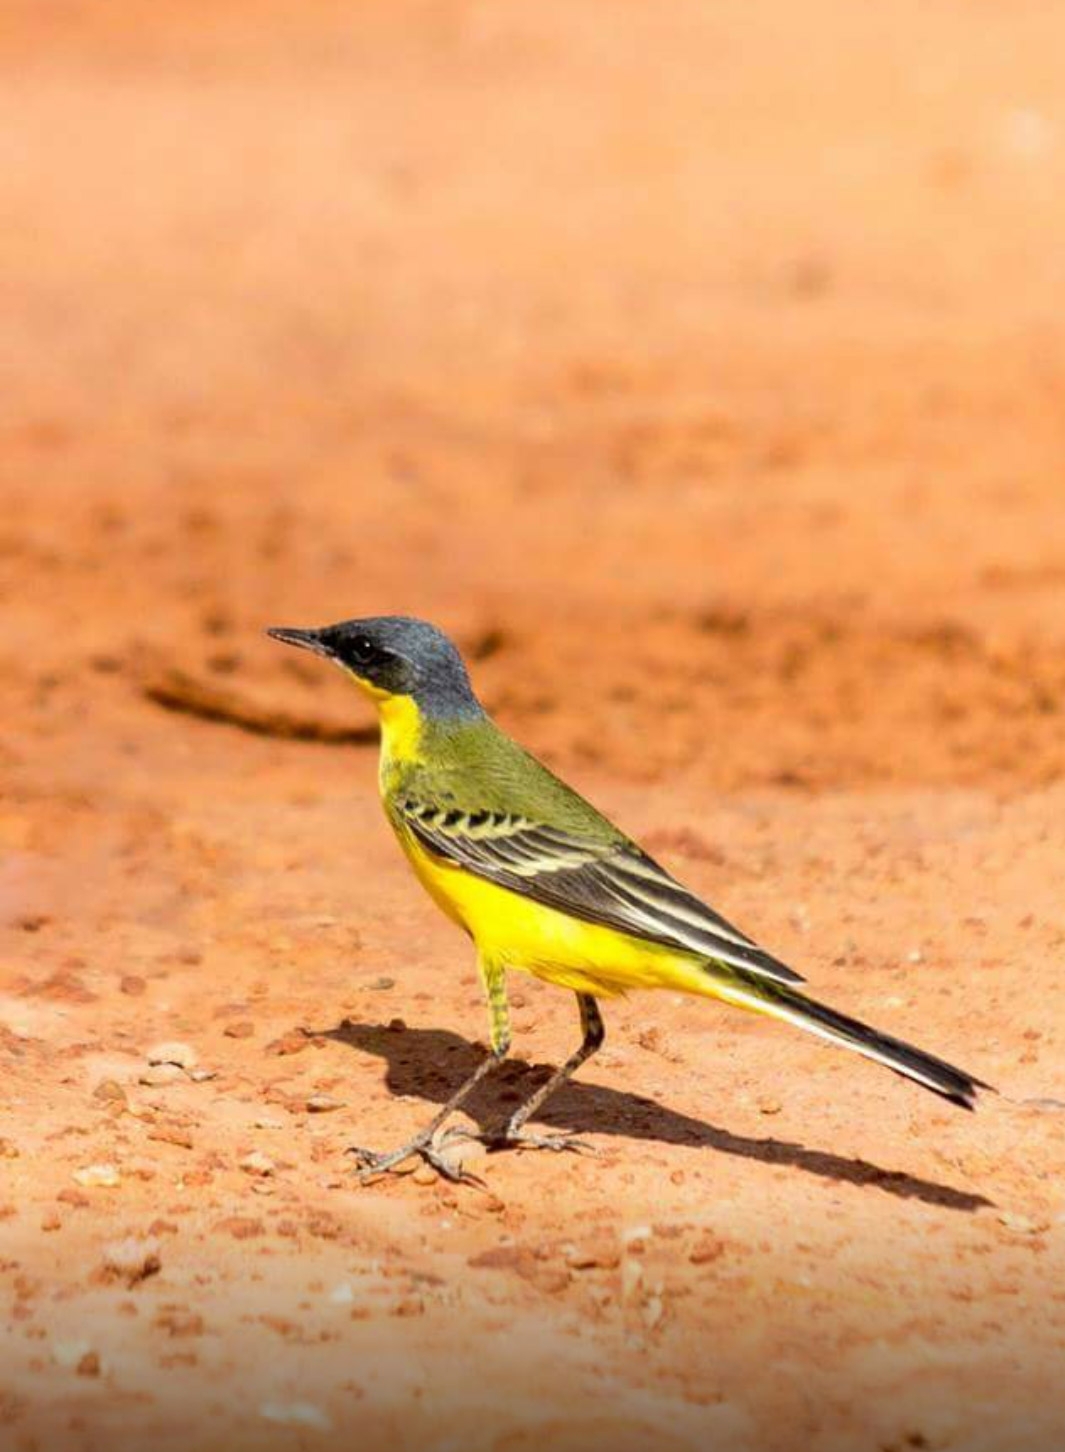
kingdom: Animalia
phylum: Chordata
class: Aves
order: Passeriformes
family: Motacillidae
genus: Motacilla
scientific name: Motacilla flava
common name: Western yellow wagtail
